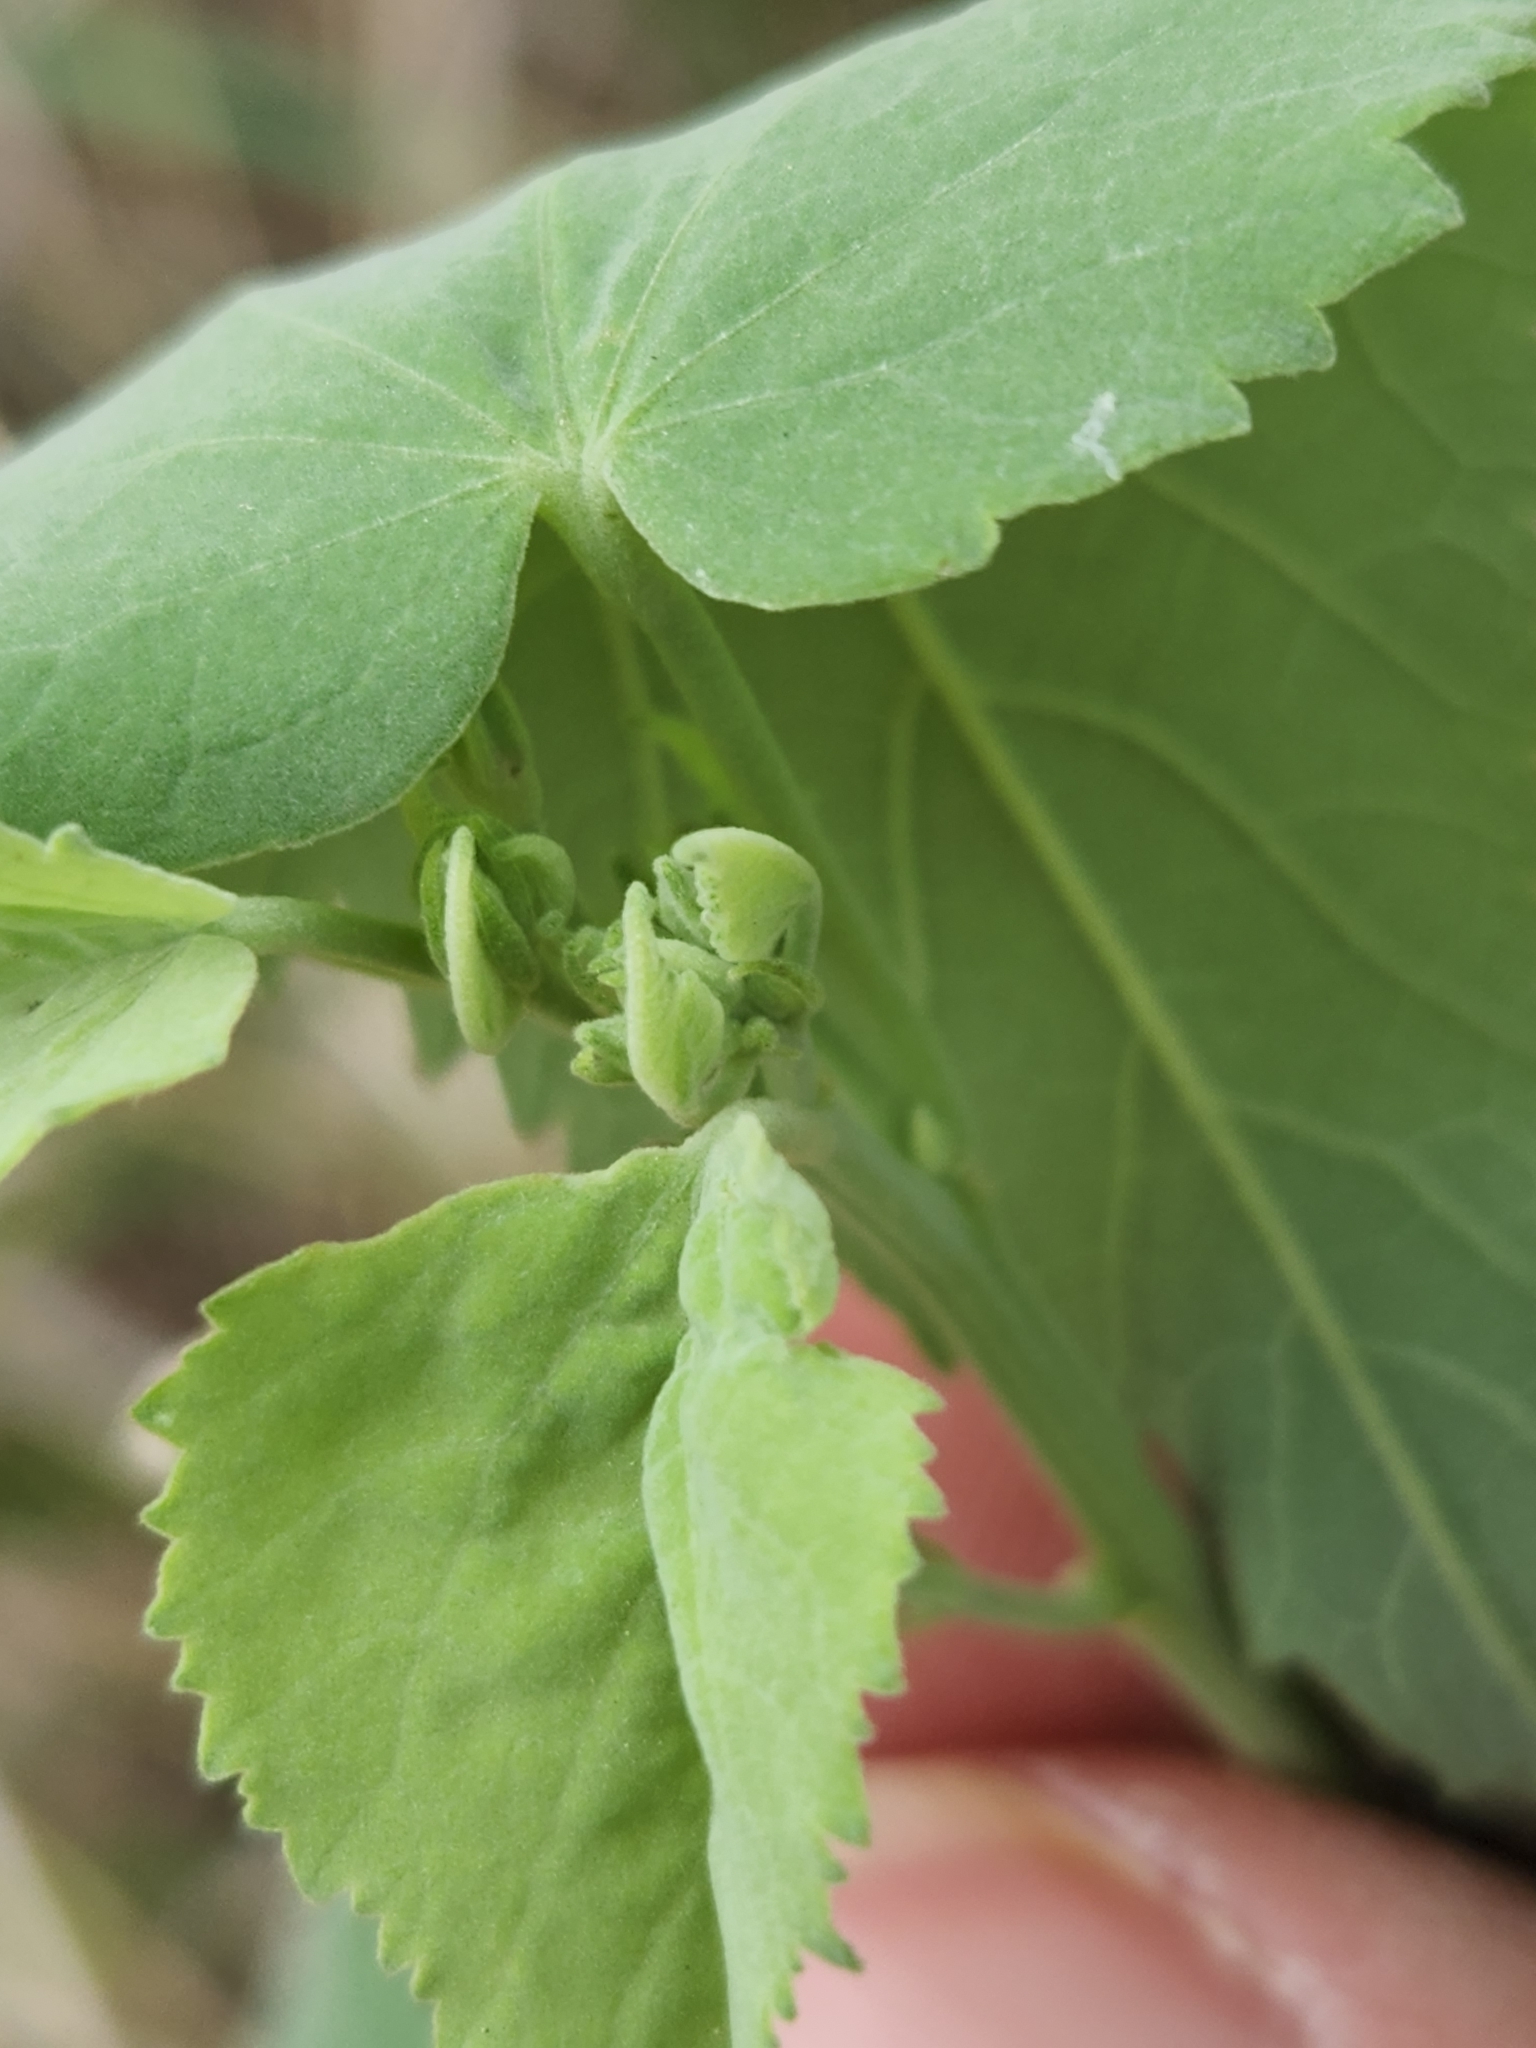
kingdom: Plantae
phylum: Tracheophyta
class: Magnoliopsida
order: Malvales
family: Malvaceae
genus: Allowissadula
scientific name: Allowissadula holosericea
